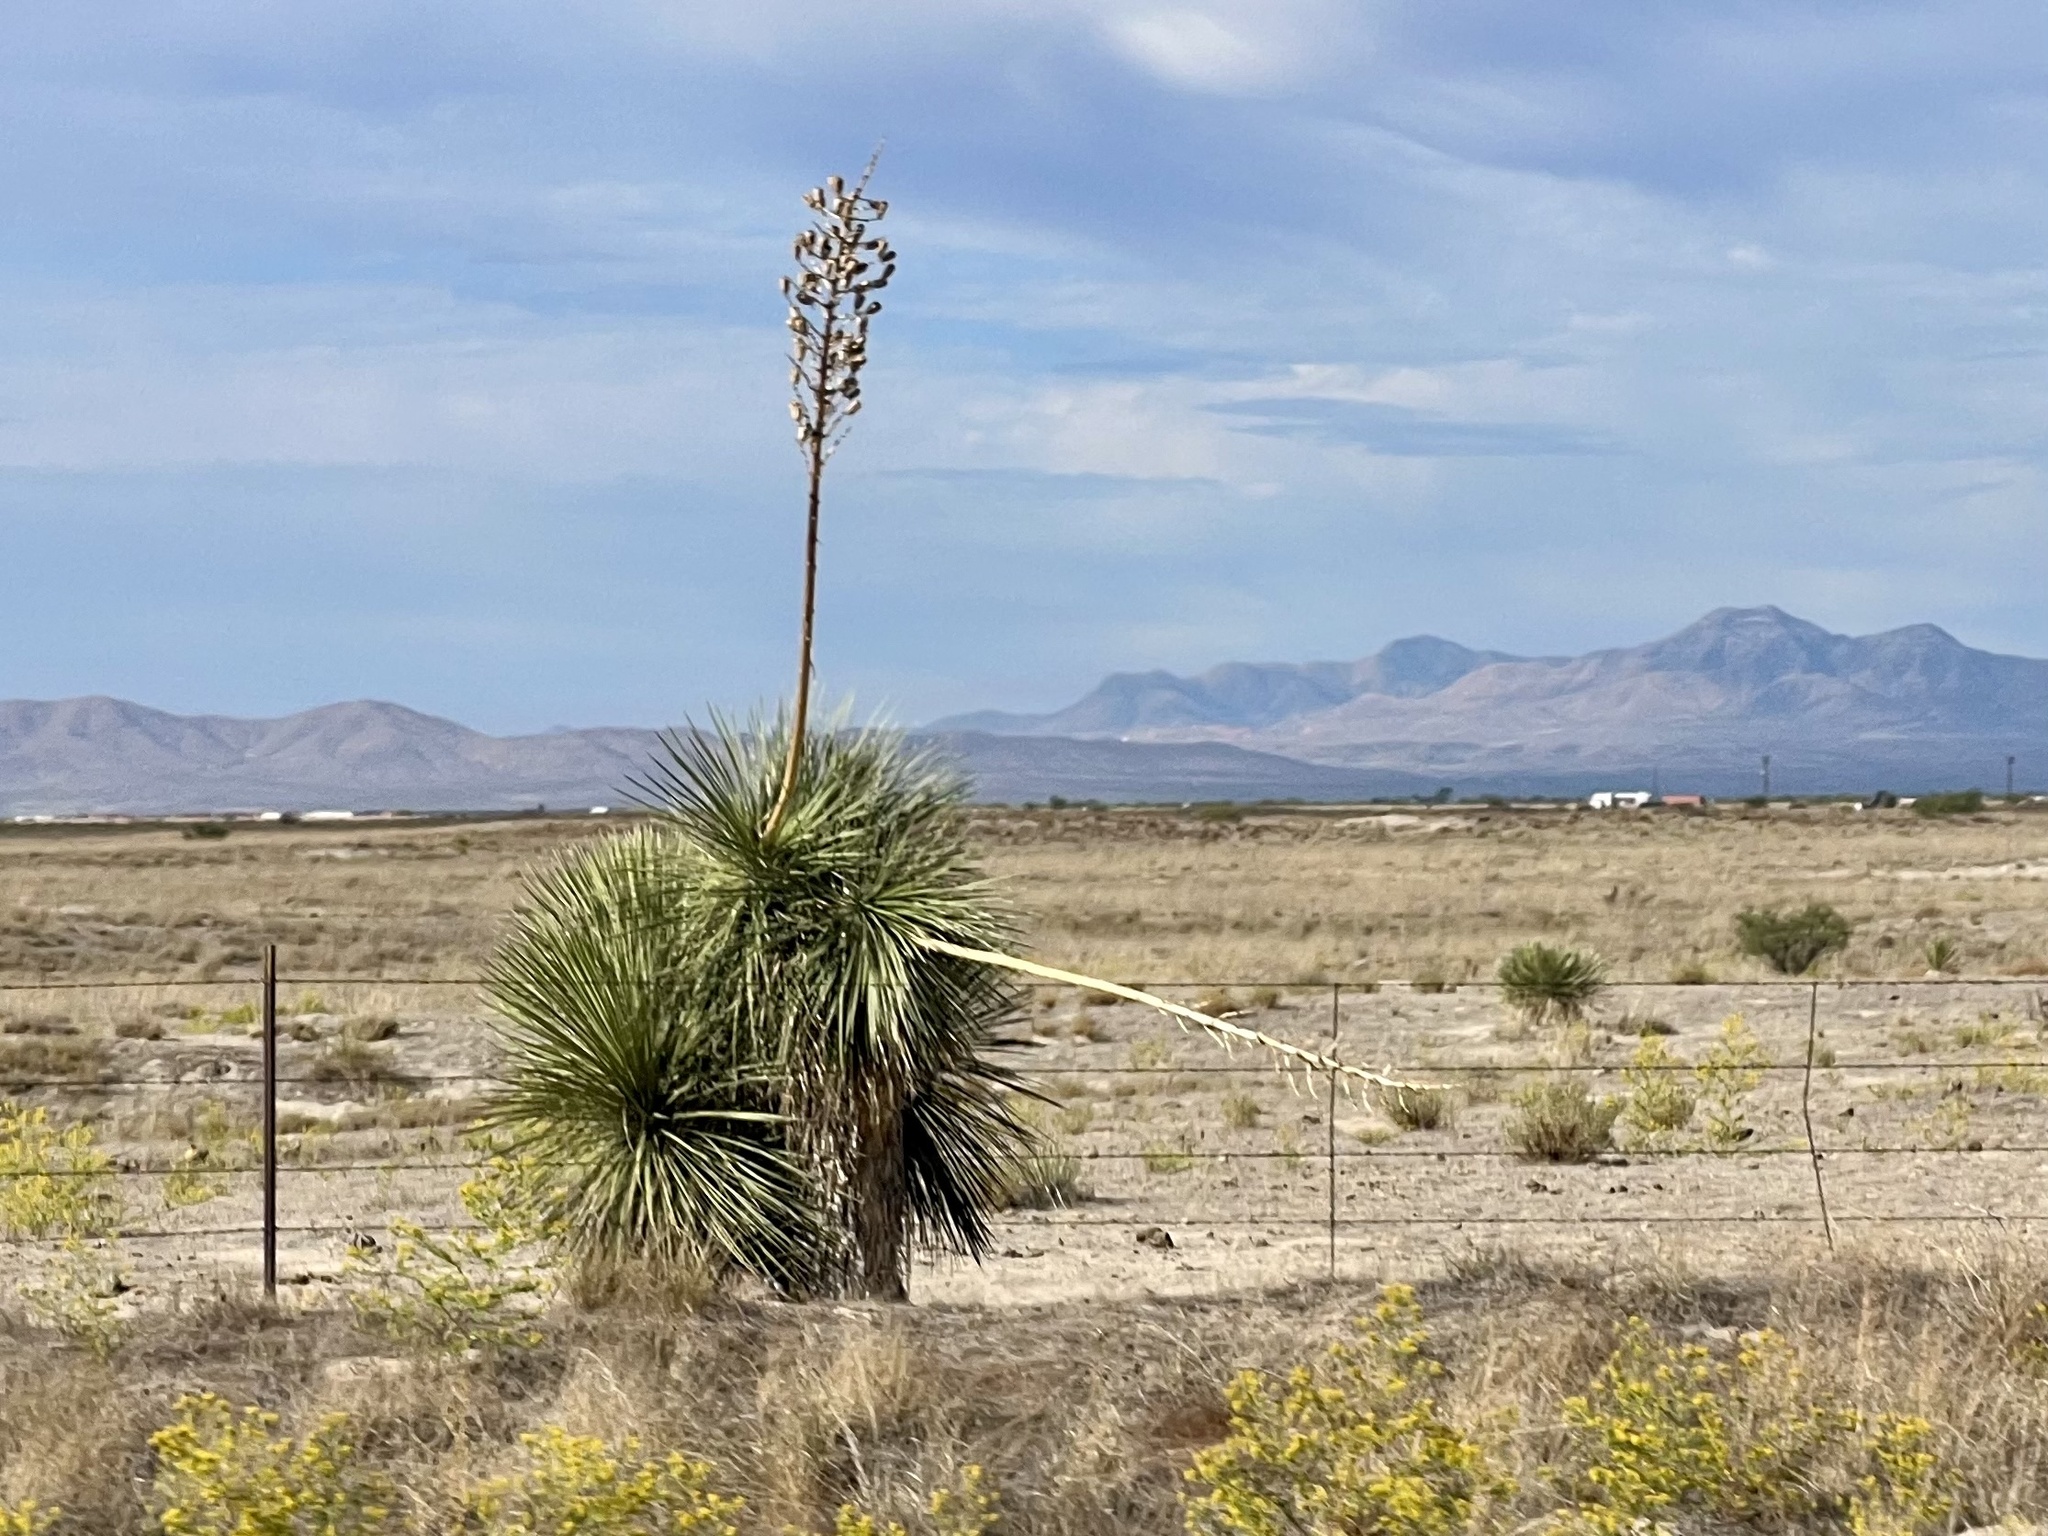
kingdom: Plantae
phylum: Tracheophyta
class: Liliopsida
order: Asparagales
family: Asparagaceae
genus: Yucca
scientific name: Yucca elata
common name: Palmella
